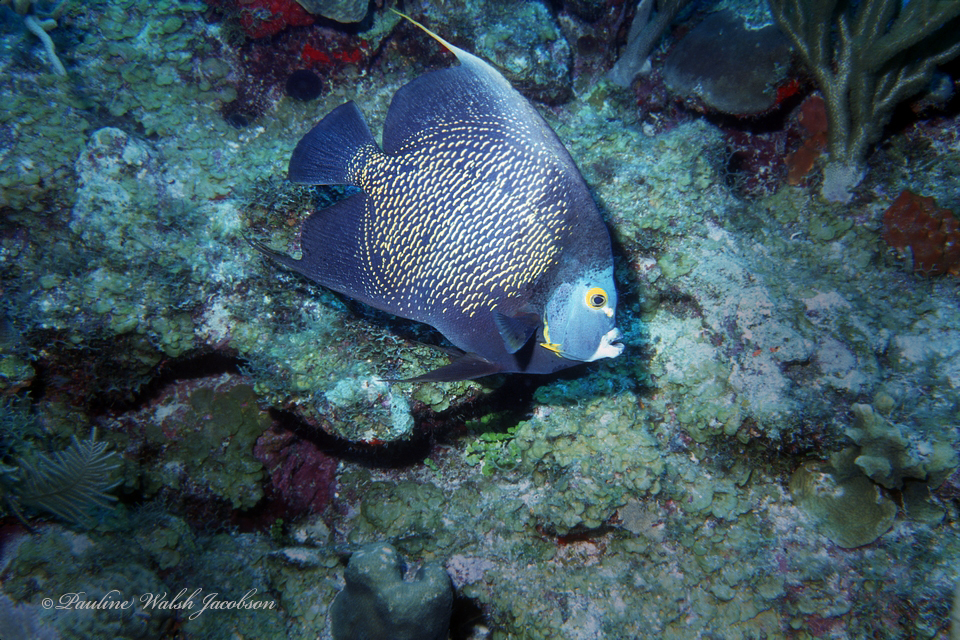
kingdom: Animalia
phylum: Chordata
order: Perciformes
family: Pomacanthidae
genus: Pomacanthus
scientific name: Pomacanthus paru
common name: French angelfish
